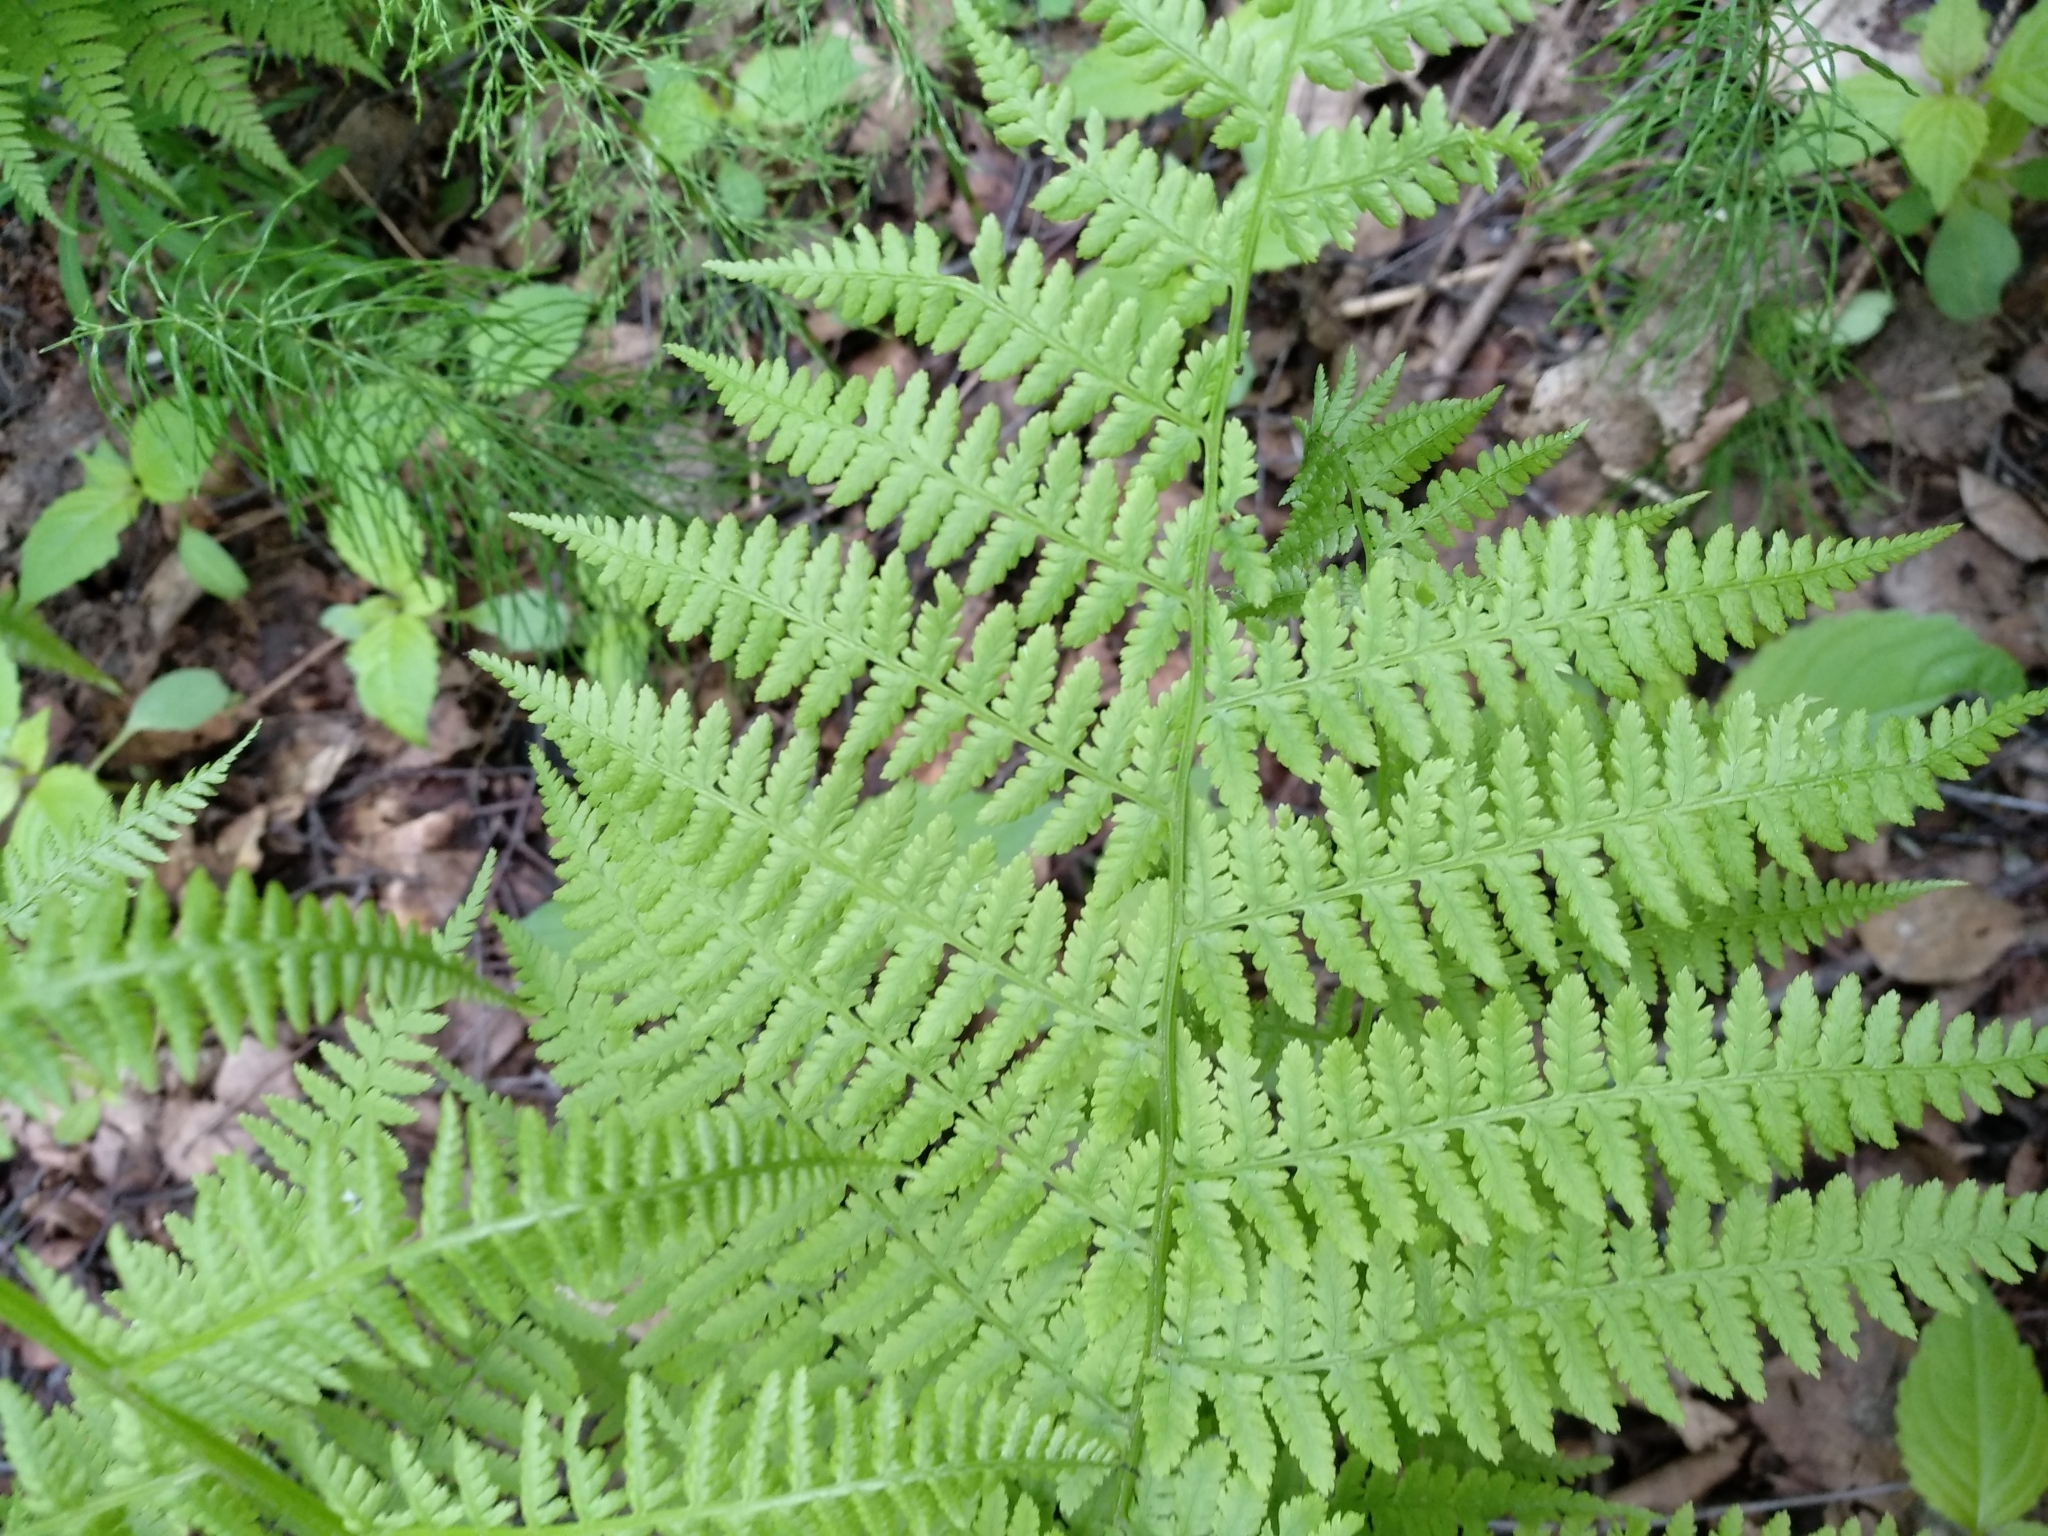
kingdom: Plantae
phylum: Tracheophyta
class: Polypodiopsida
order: Polypodiales
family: Athyriaceae
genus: Athyrium
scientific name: Athyrium filix-femina
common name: Lady fern
